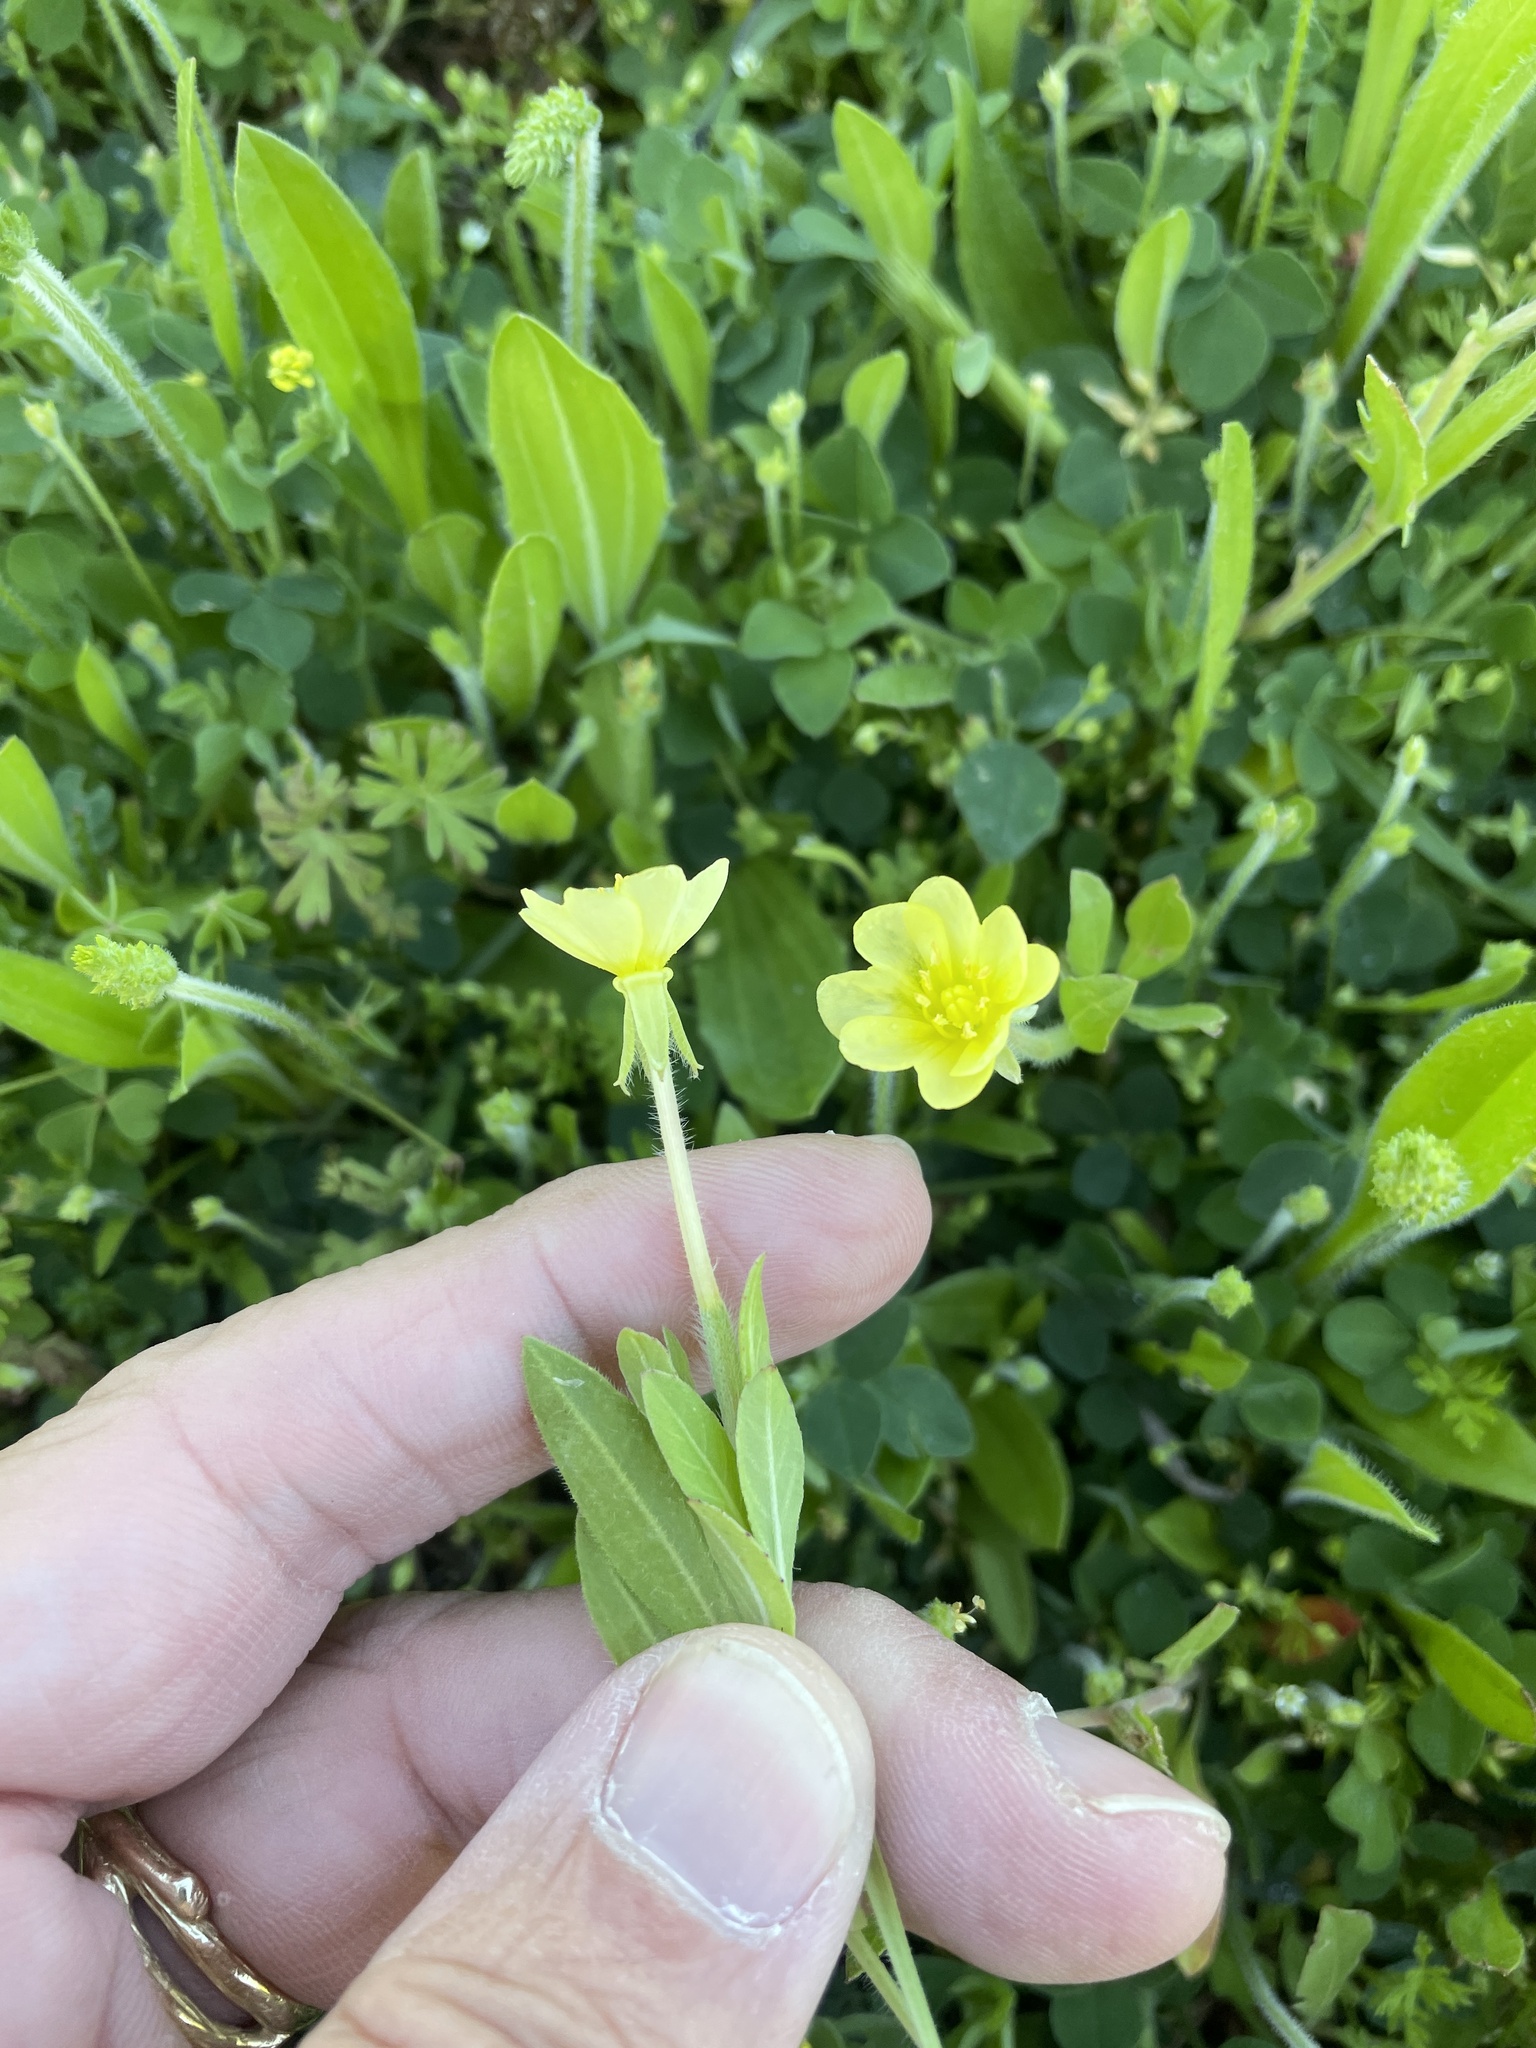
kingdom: Plantae
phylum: Tracheophyta
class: Magnoliopsida
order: Myrtales
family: Onagraceae
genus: Oenothera
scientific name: Oenothera laciniata
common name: Cut-leaved evening-primrose
